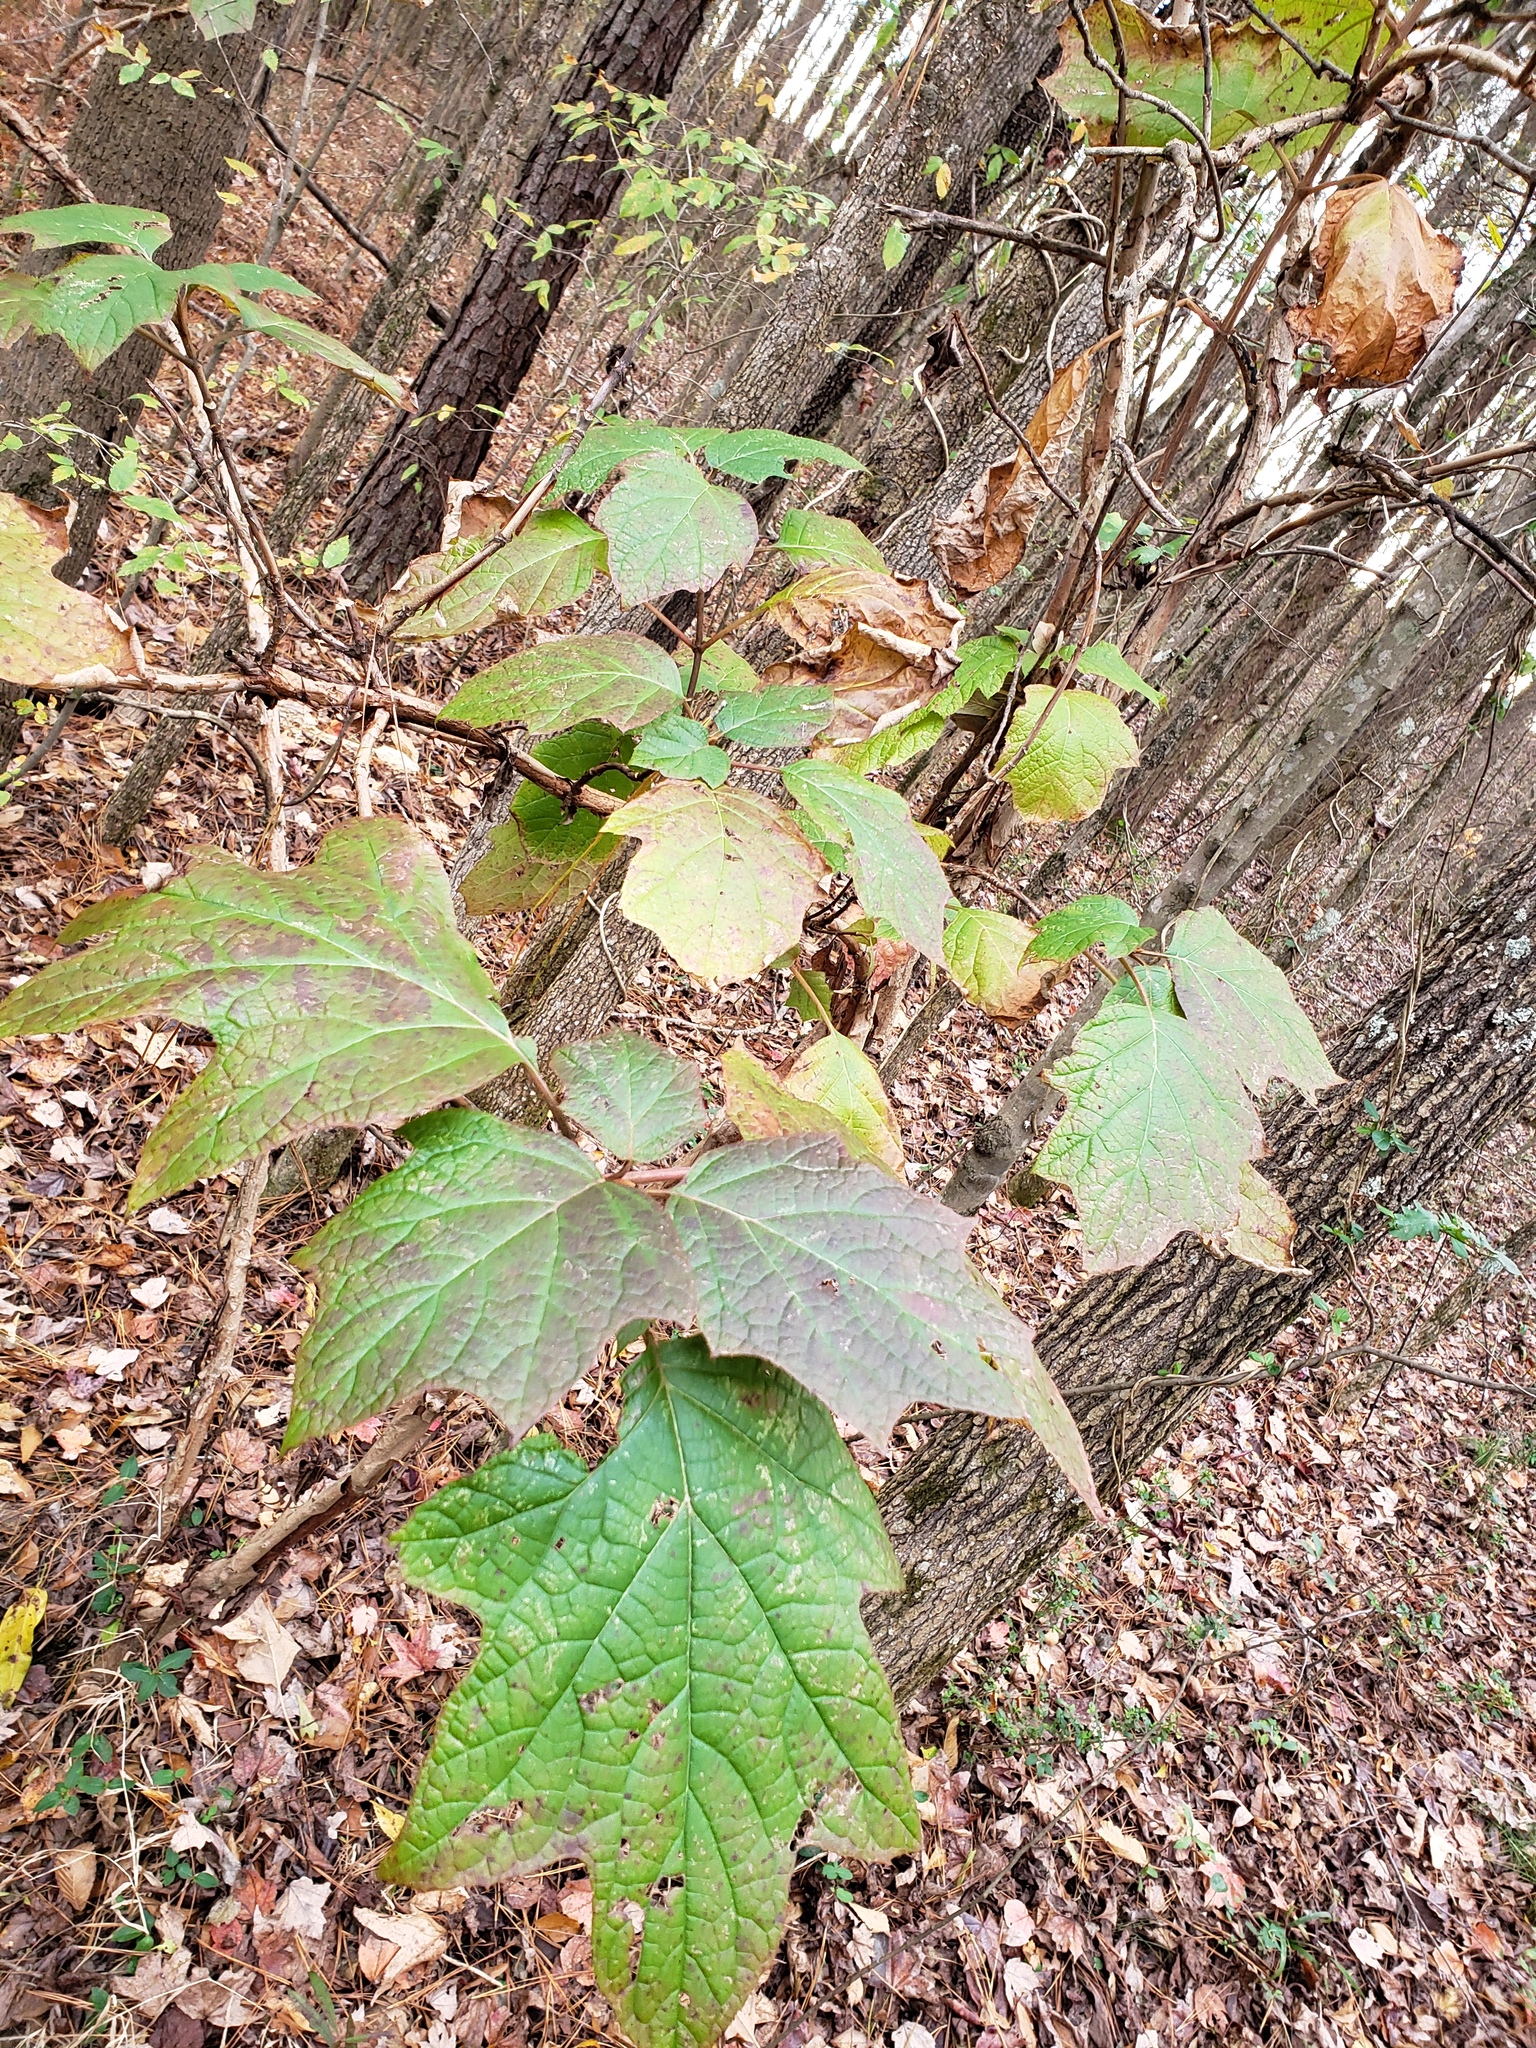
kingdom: Plantae
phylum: Tracheophyta
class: Magnoliopsida
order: Cornales
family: Hydrangeaceae
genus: Hydrangea
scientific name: Hydrangea quercifolia
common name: Oak-leaf hydrangea
